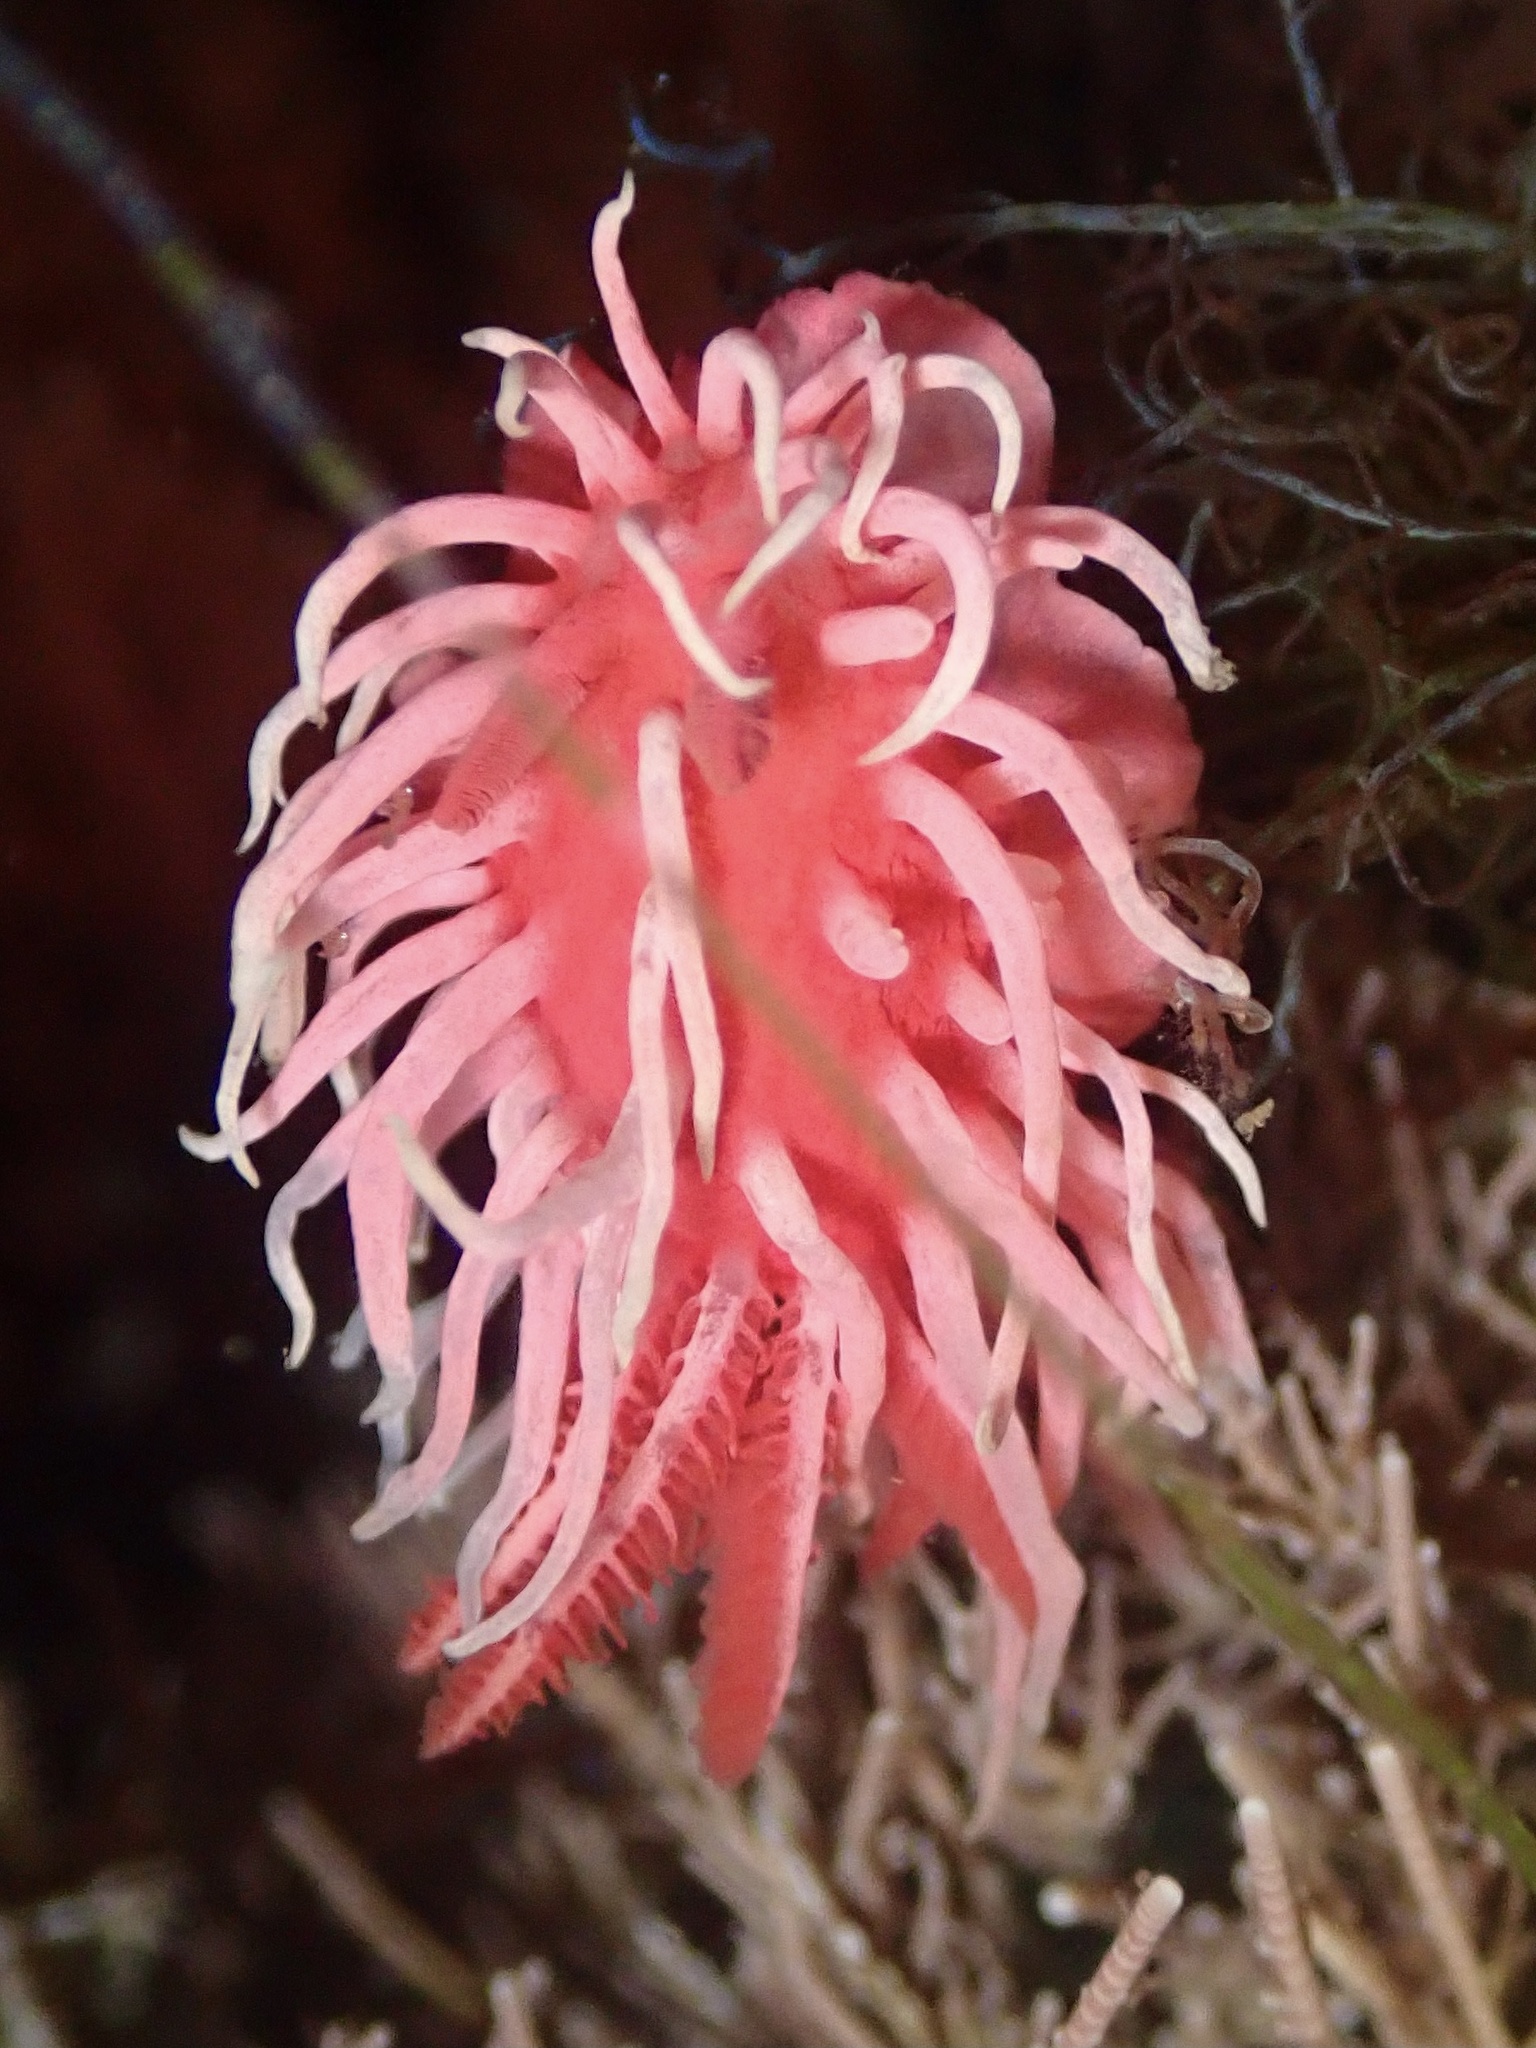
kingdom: Animalia
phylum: Mollusca
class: Gastropoda
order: Nudibranchia
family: Goniodorididae
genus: Okenia
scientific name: Okenia
